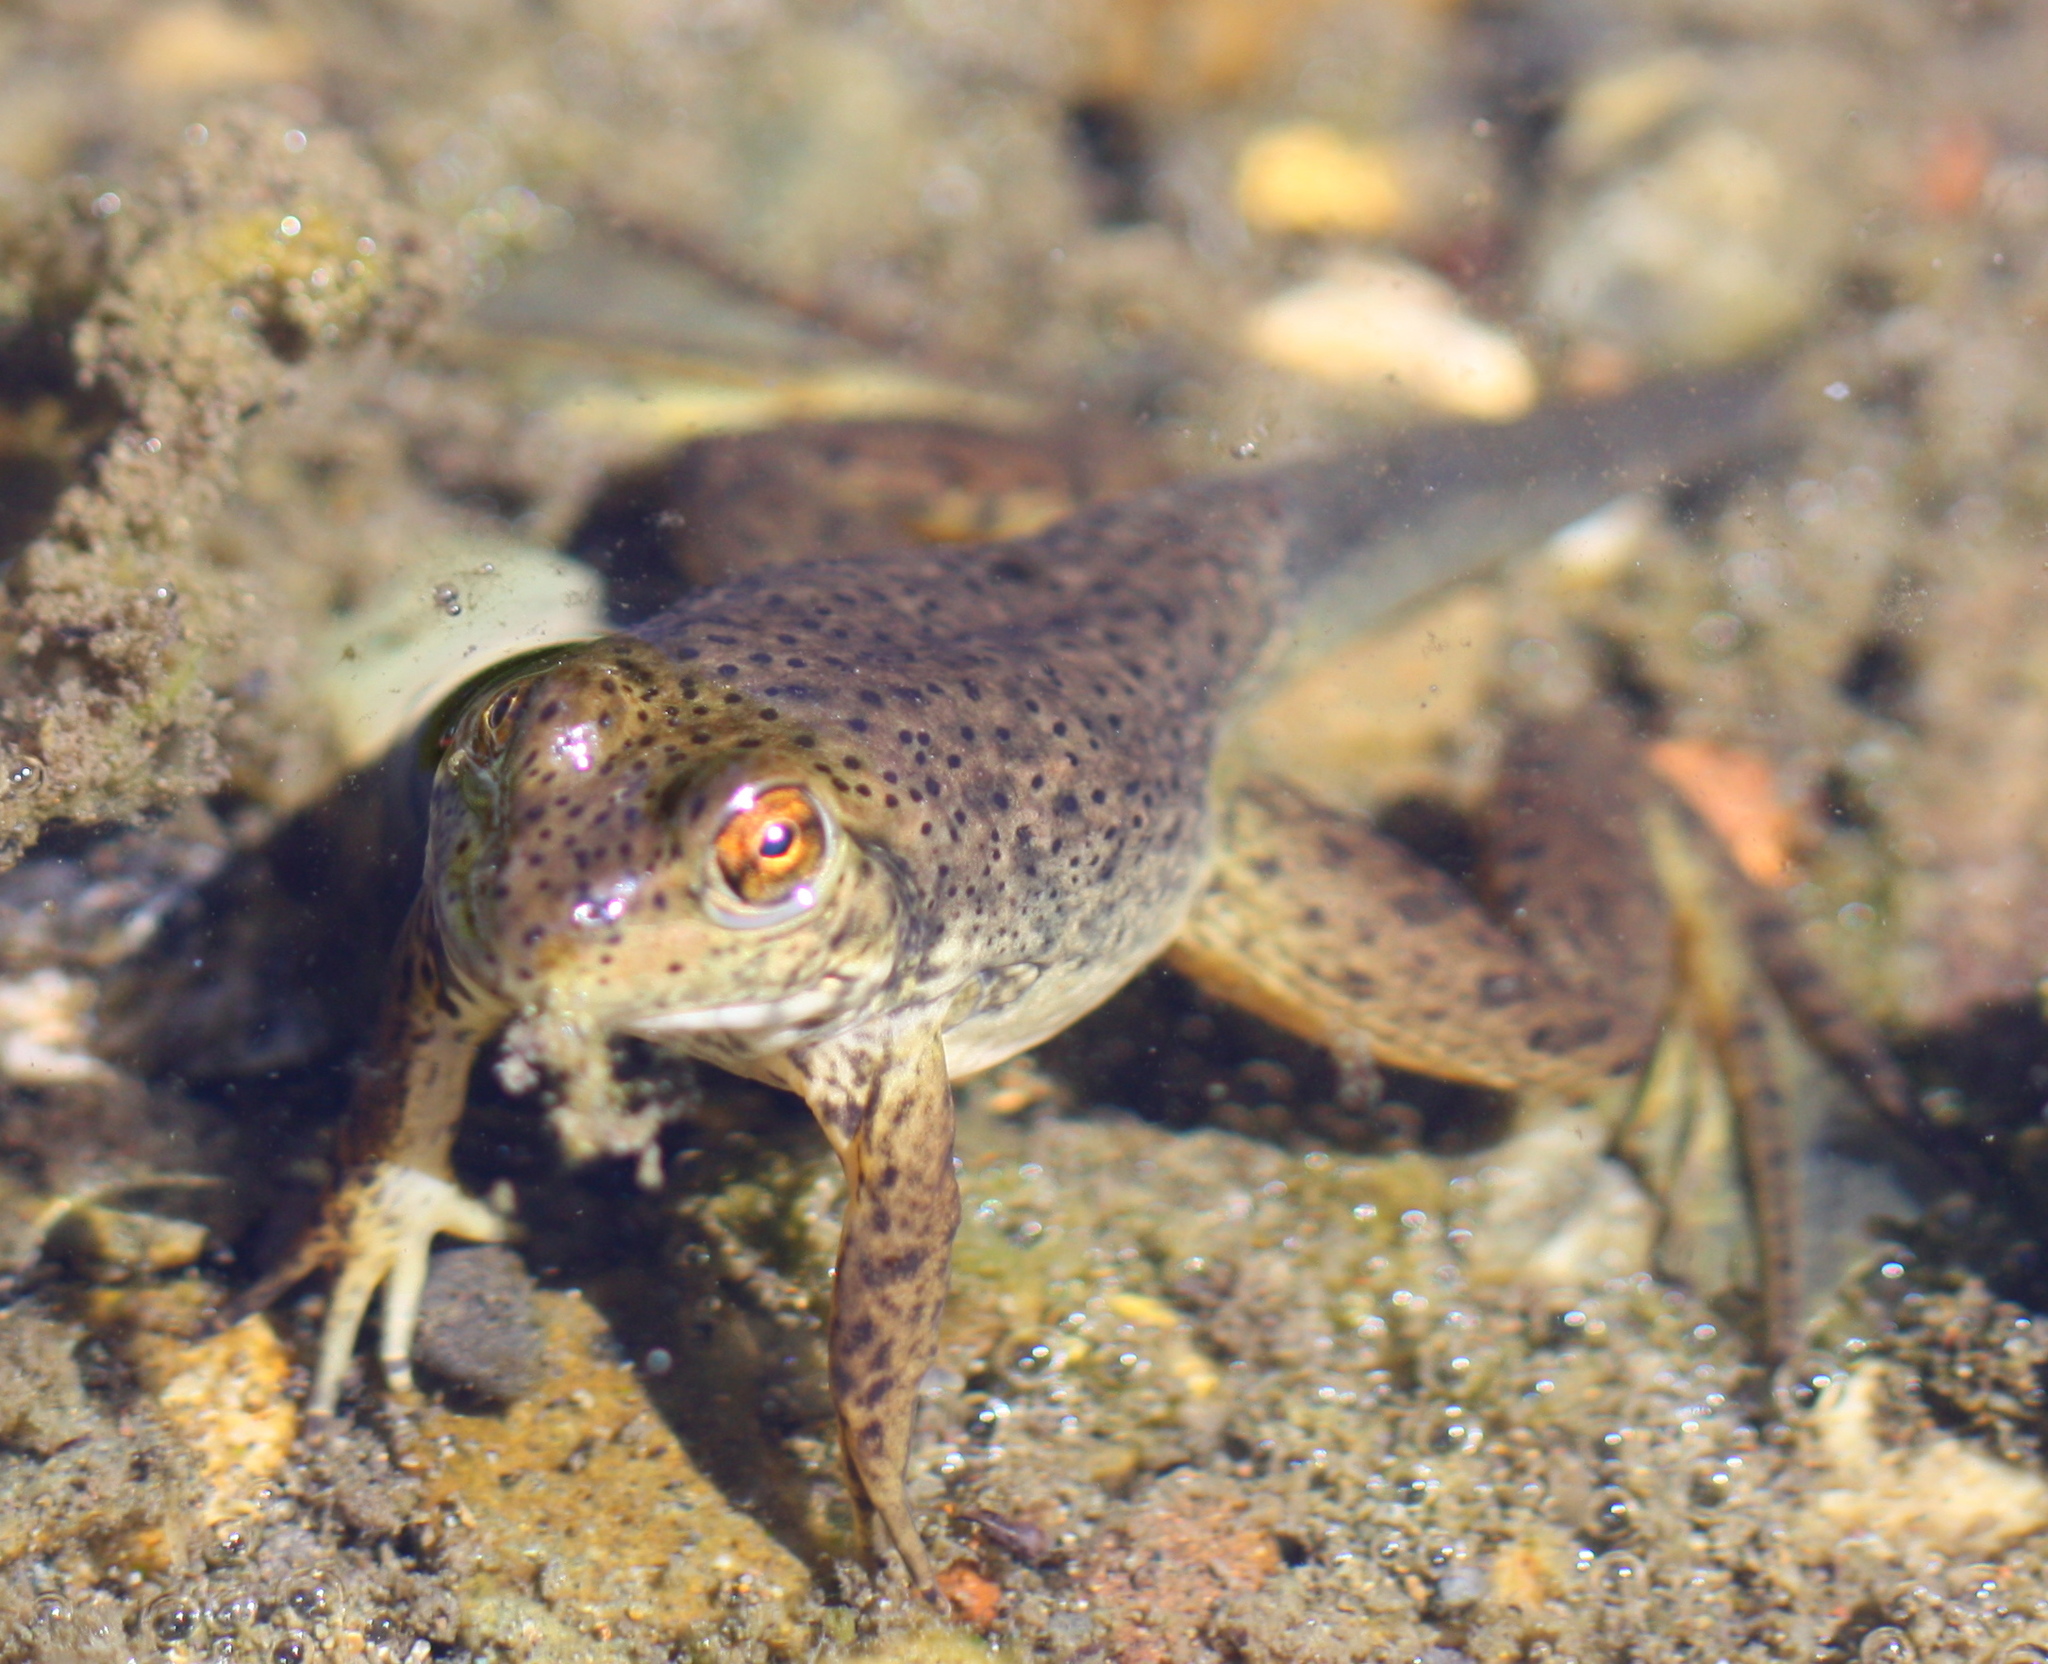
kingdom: Animalia
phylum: Chordata
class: Amphibia
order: Anura
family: Ranidae
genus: Lithobates
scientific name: Lithobates catesbeianus
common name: American bullfrog
